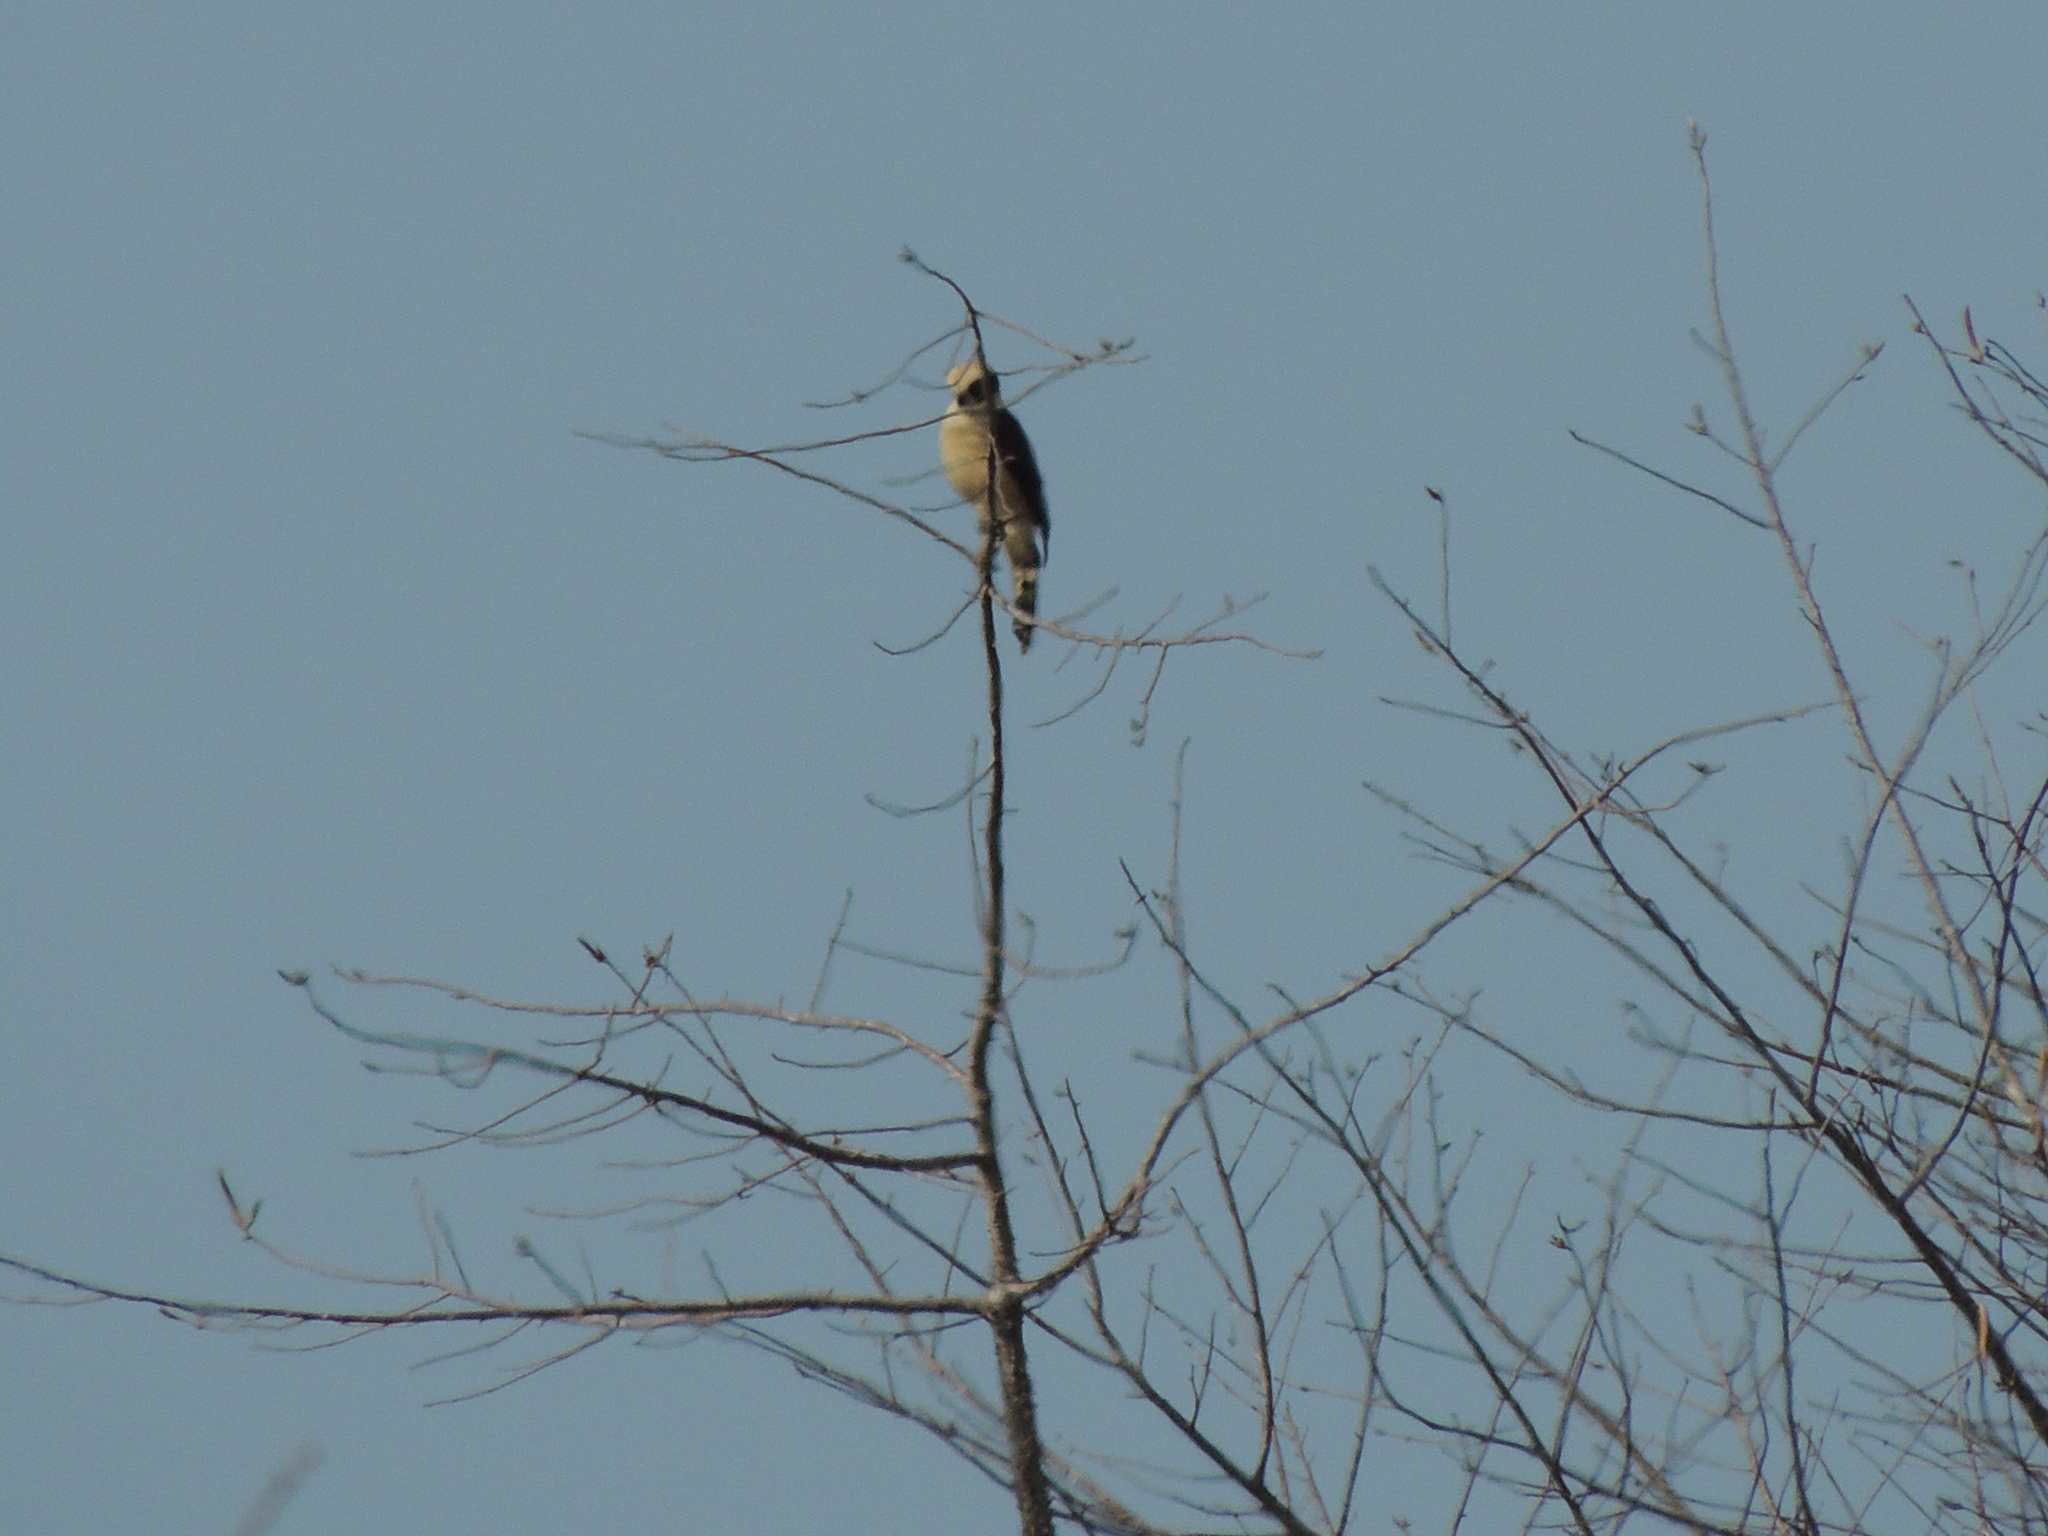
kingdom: Animalia
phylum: Chordata
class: Aves
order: Falconiformes
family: Falconidae
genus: Herpetotheres
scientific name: Herpetotheres cachinnans
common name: Laughing falcon
